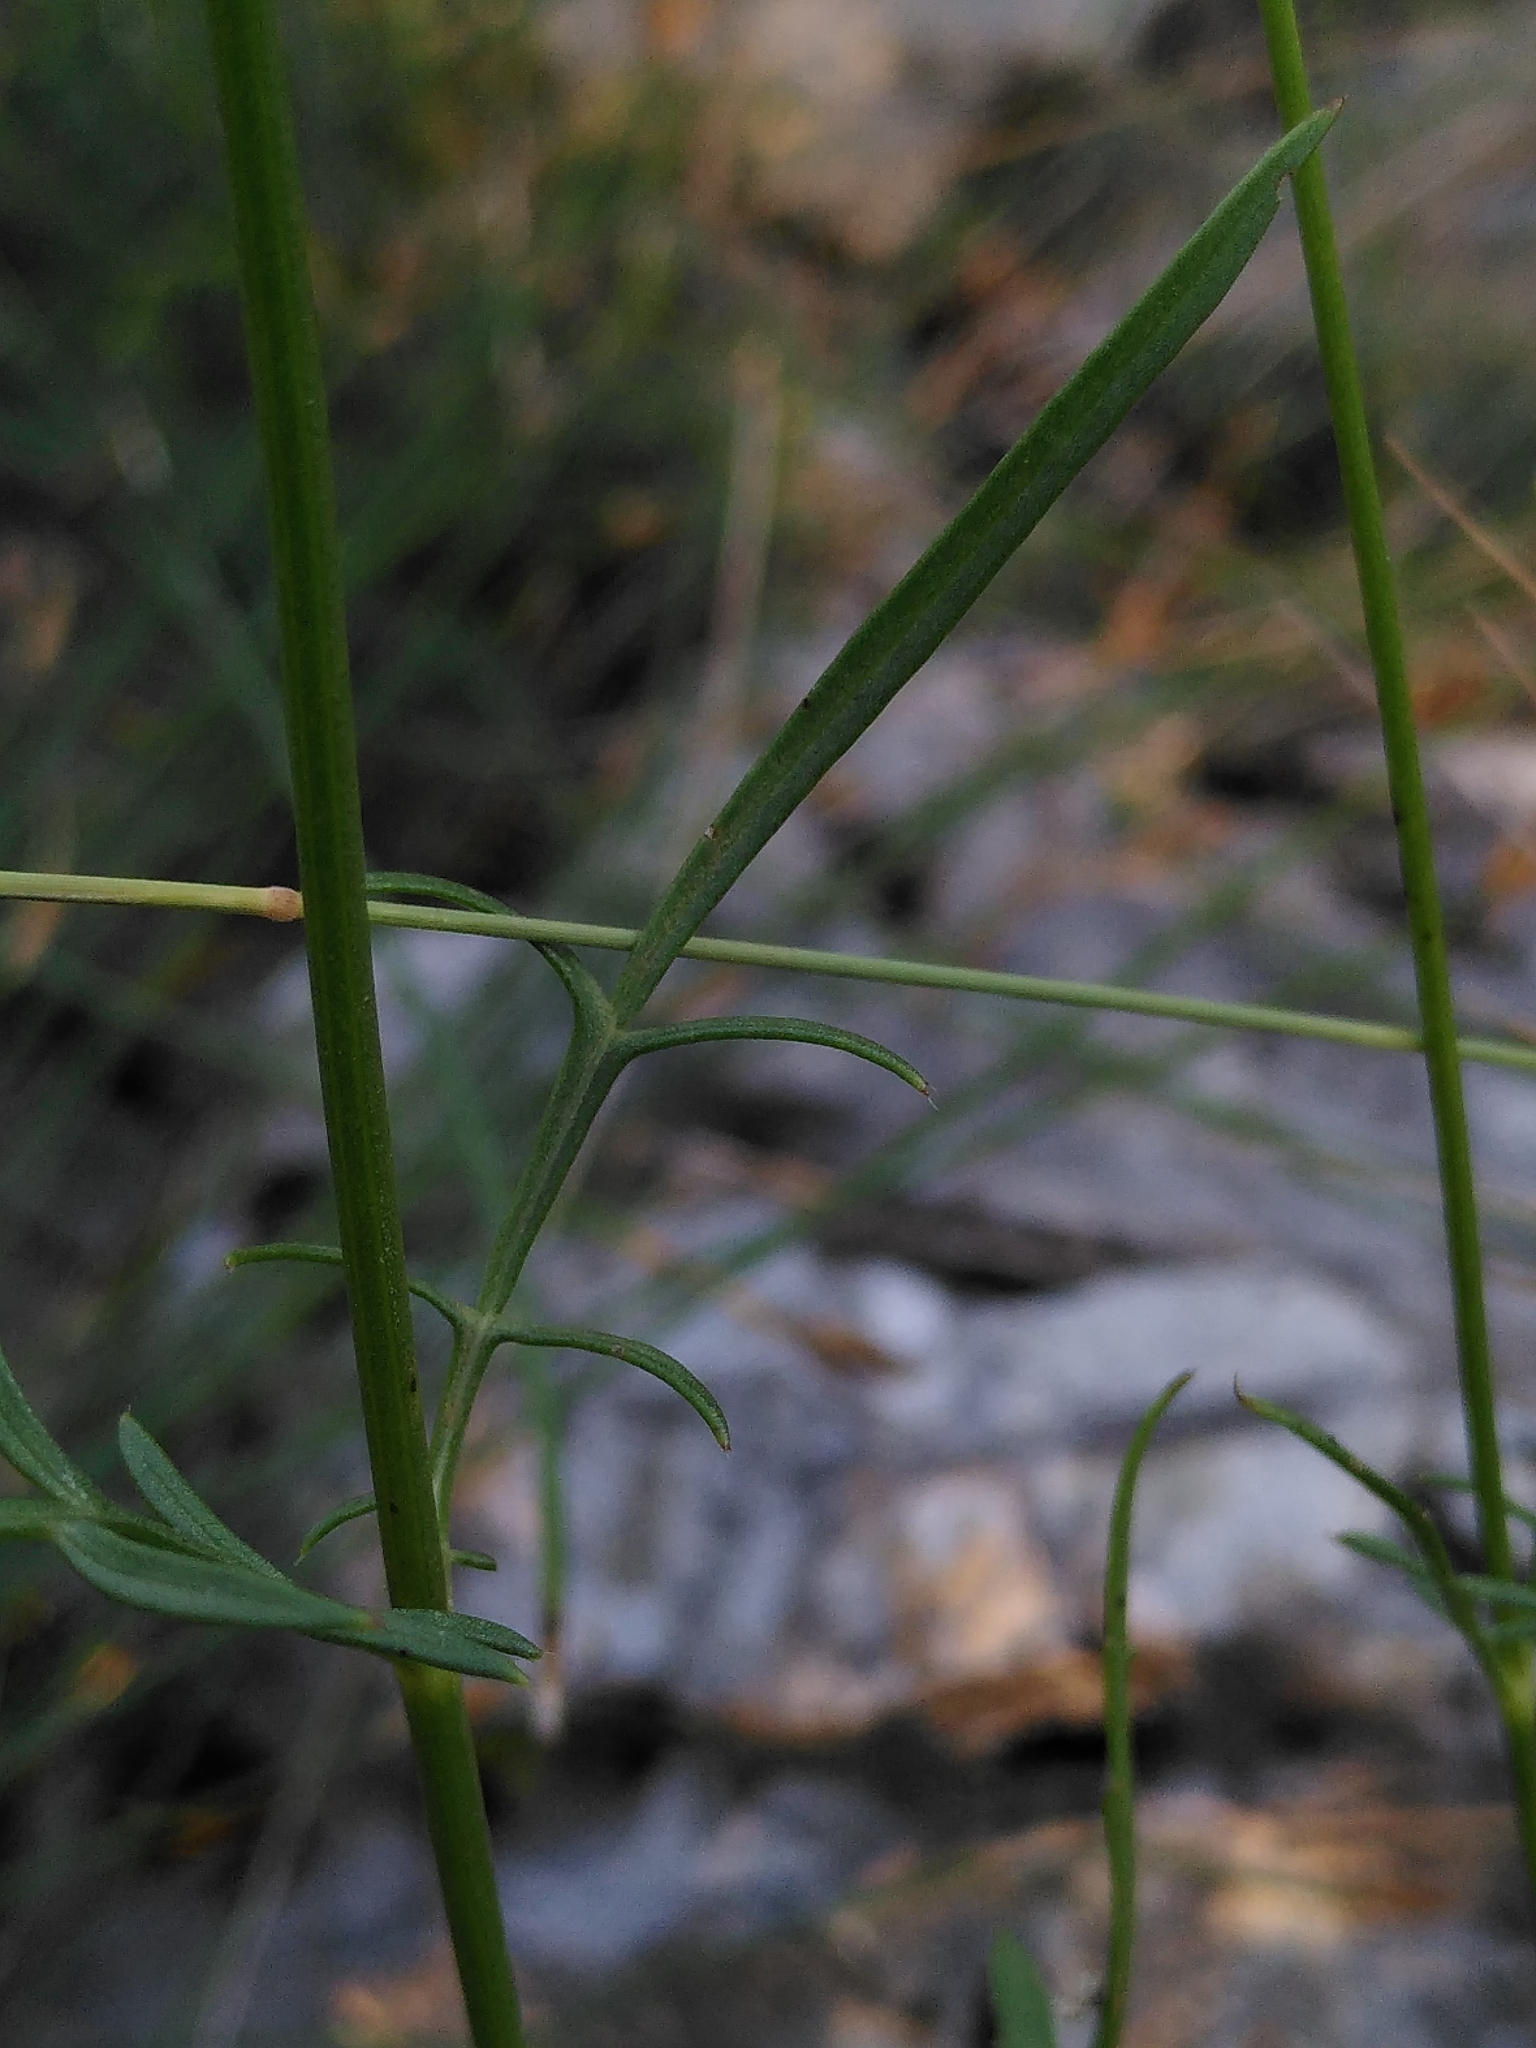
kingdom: Plantae
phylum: Tracheophyta
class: Magnoliopsida
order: Dipsacales
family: Caprifoliaceae
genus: Cephalaria
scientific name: Cephalaria leucantha
